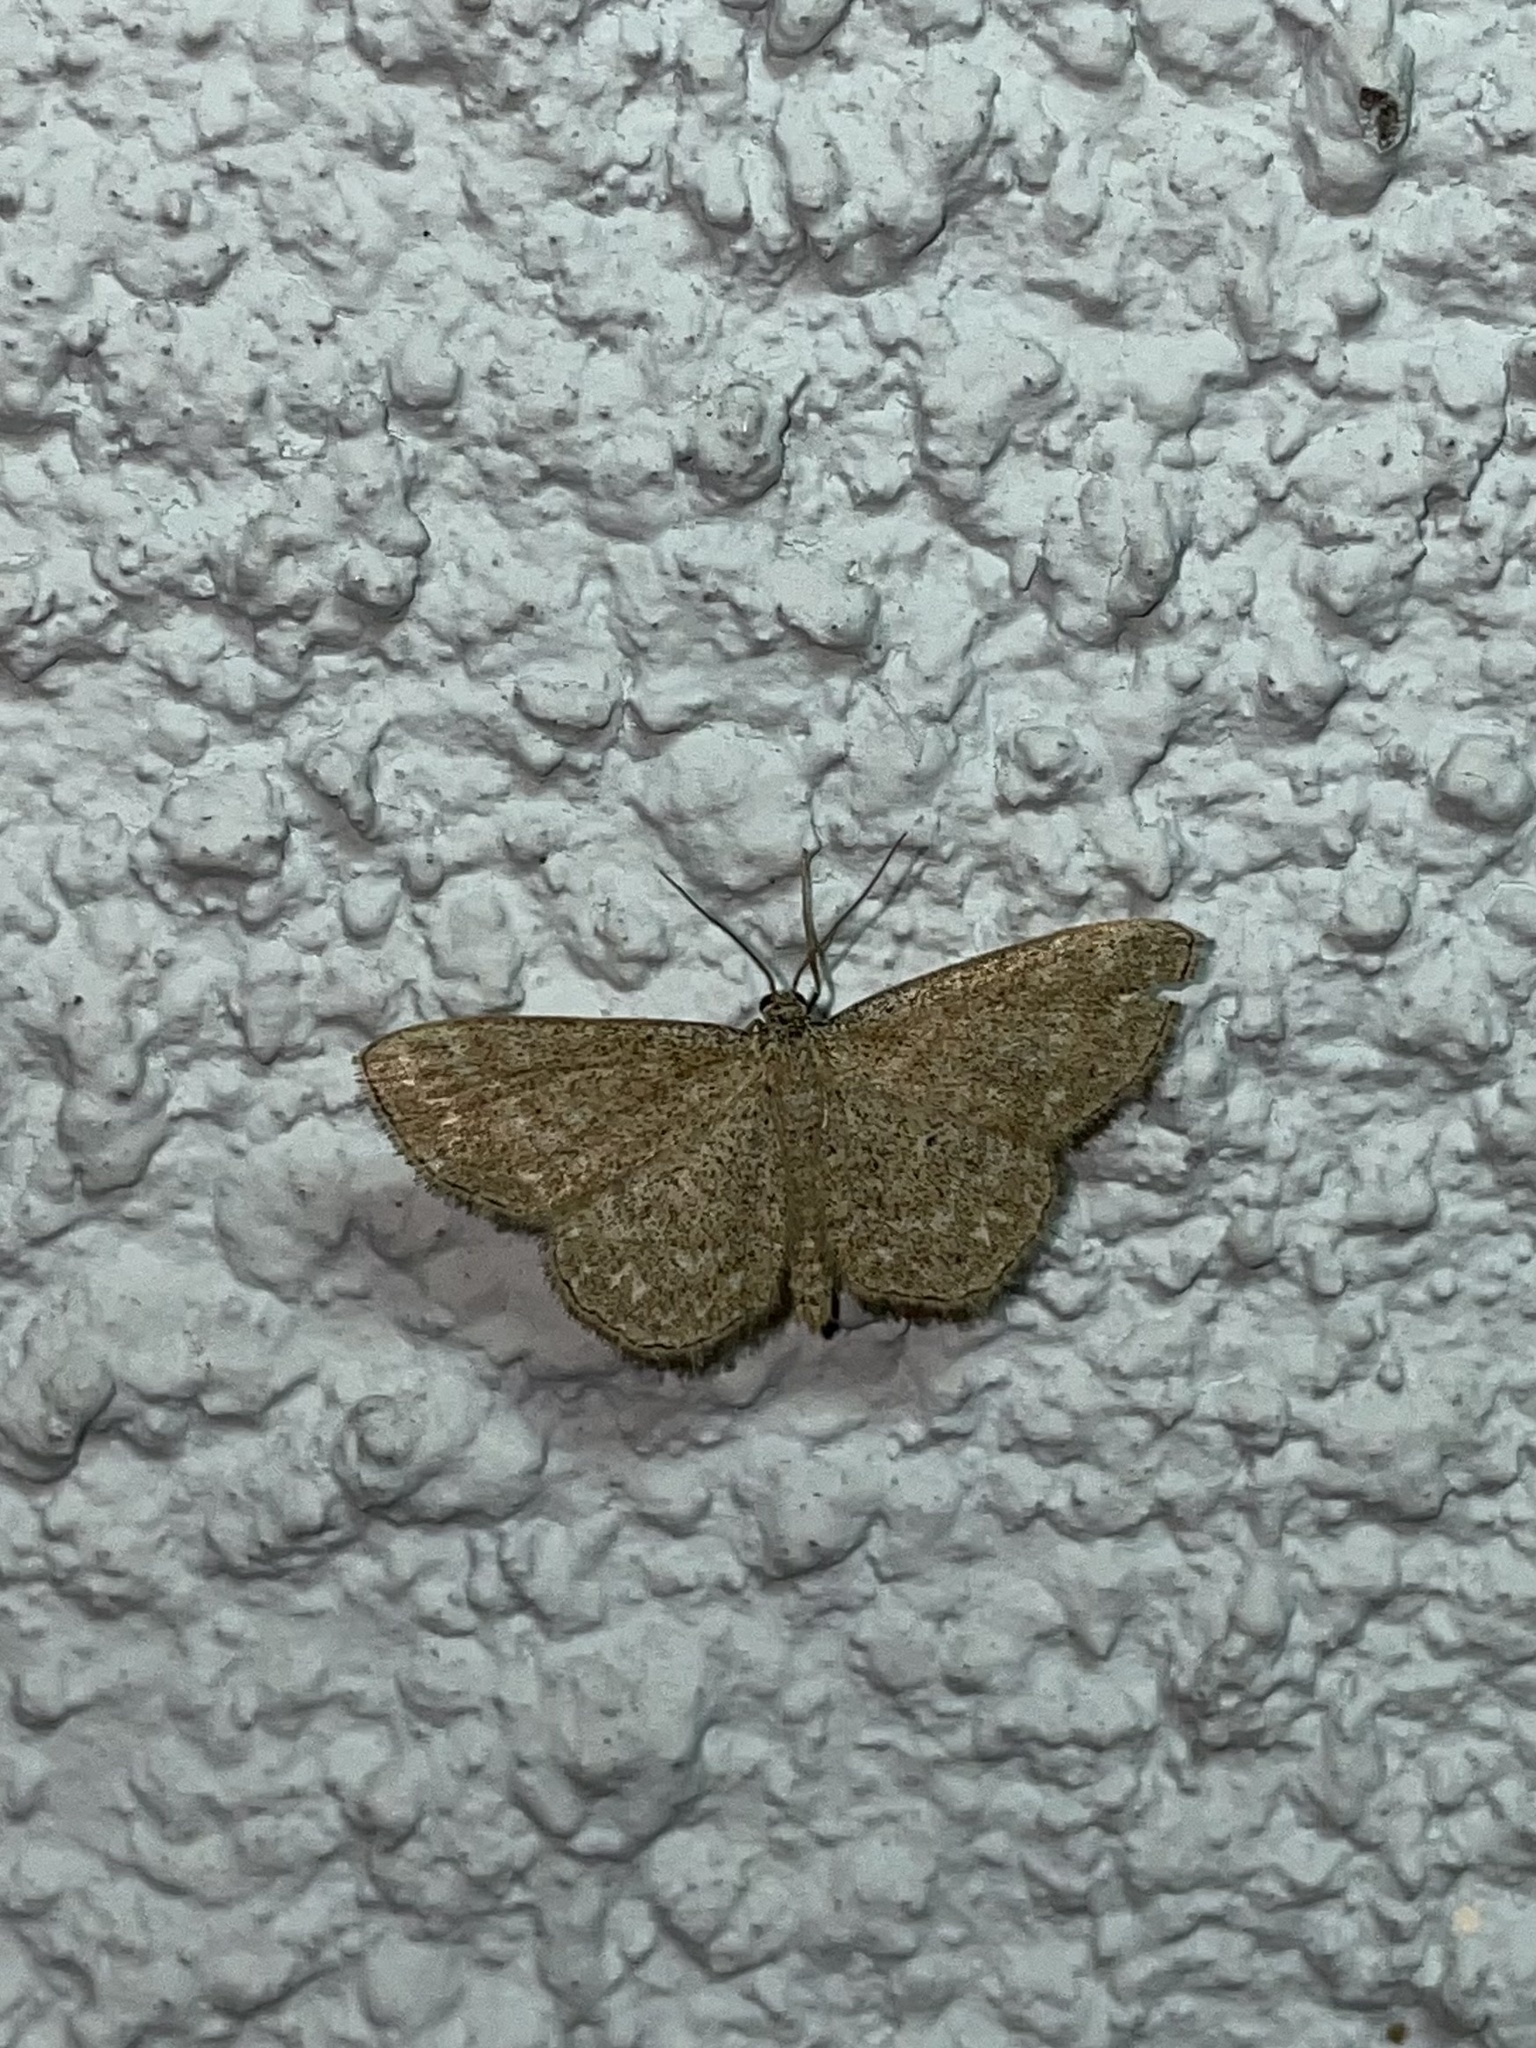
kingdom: Animalia
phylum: Arthropoda
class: Insecta
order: Lepidoptera
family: Geometridae
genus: Scopula
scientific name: Scopula immorata
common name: Lewes wave
